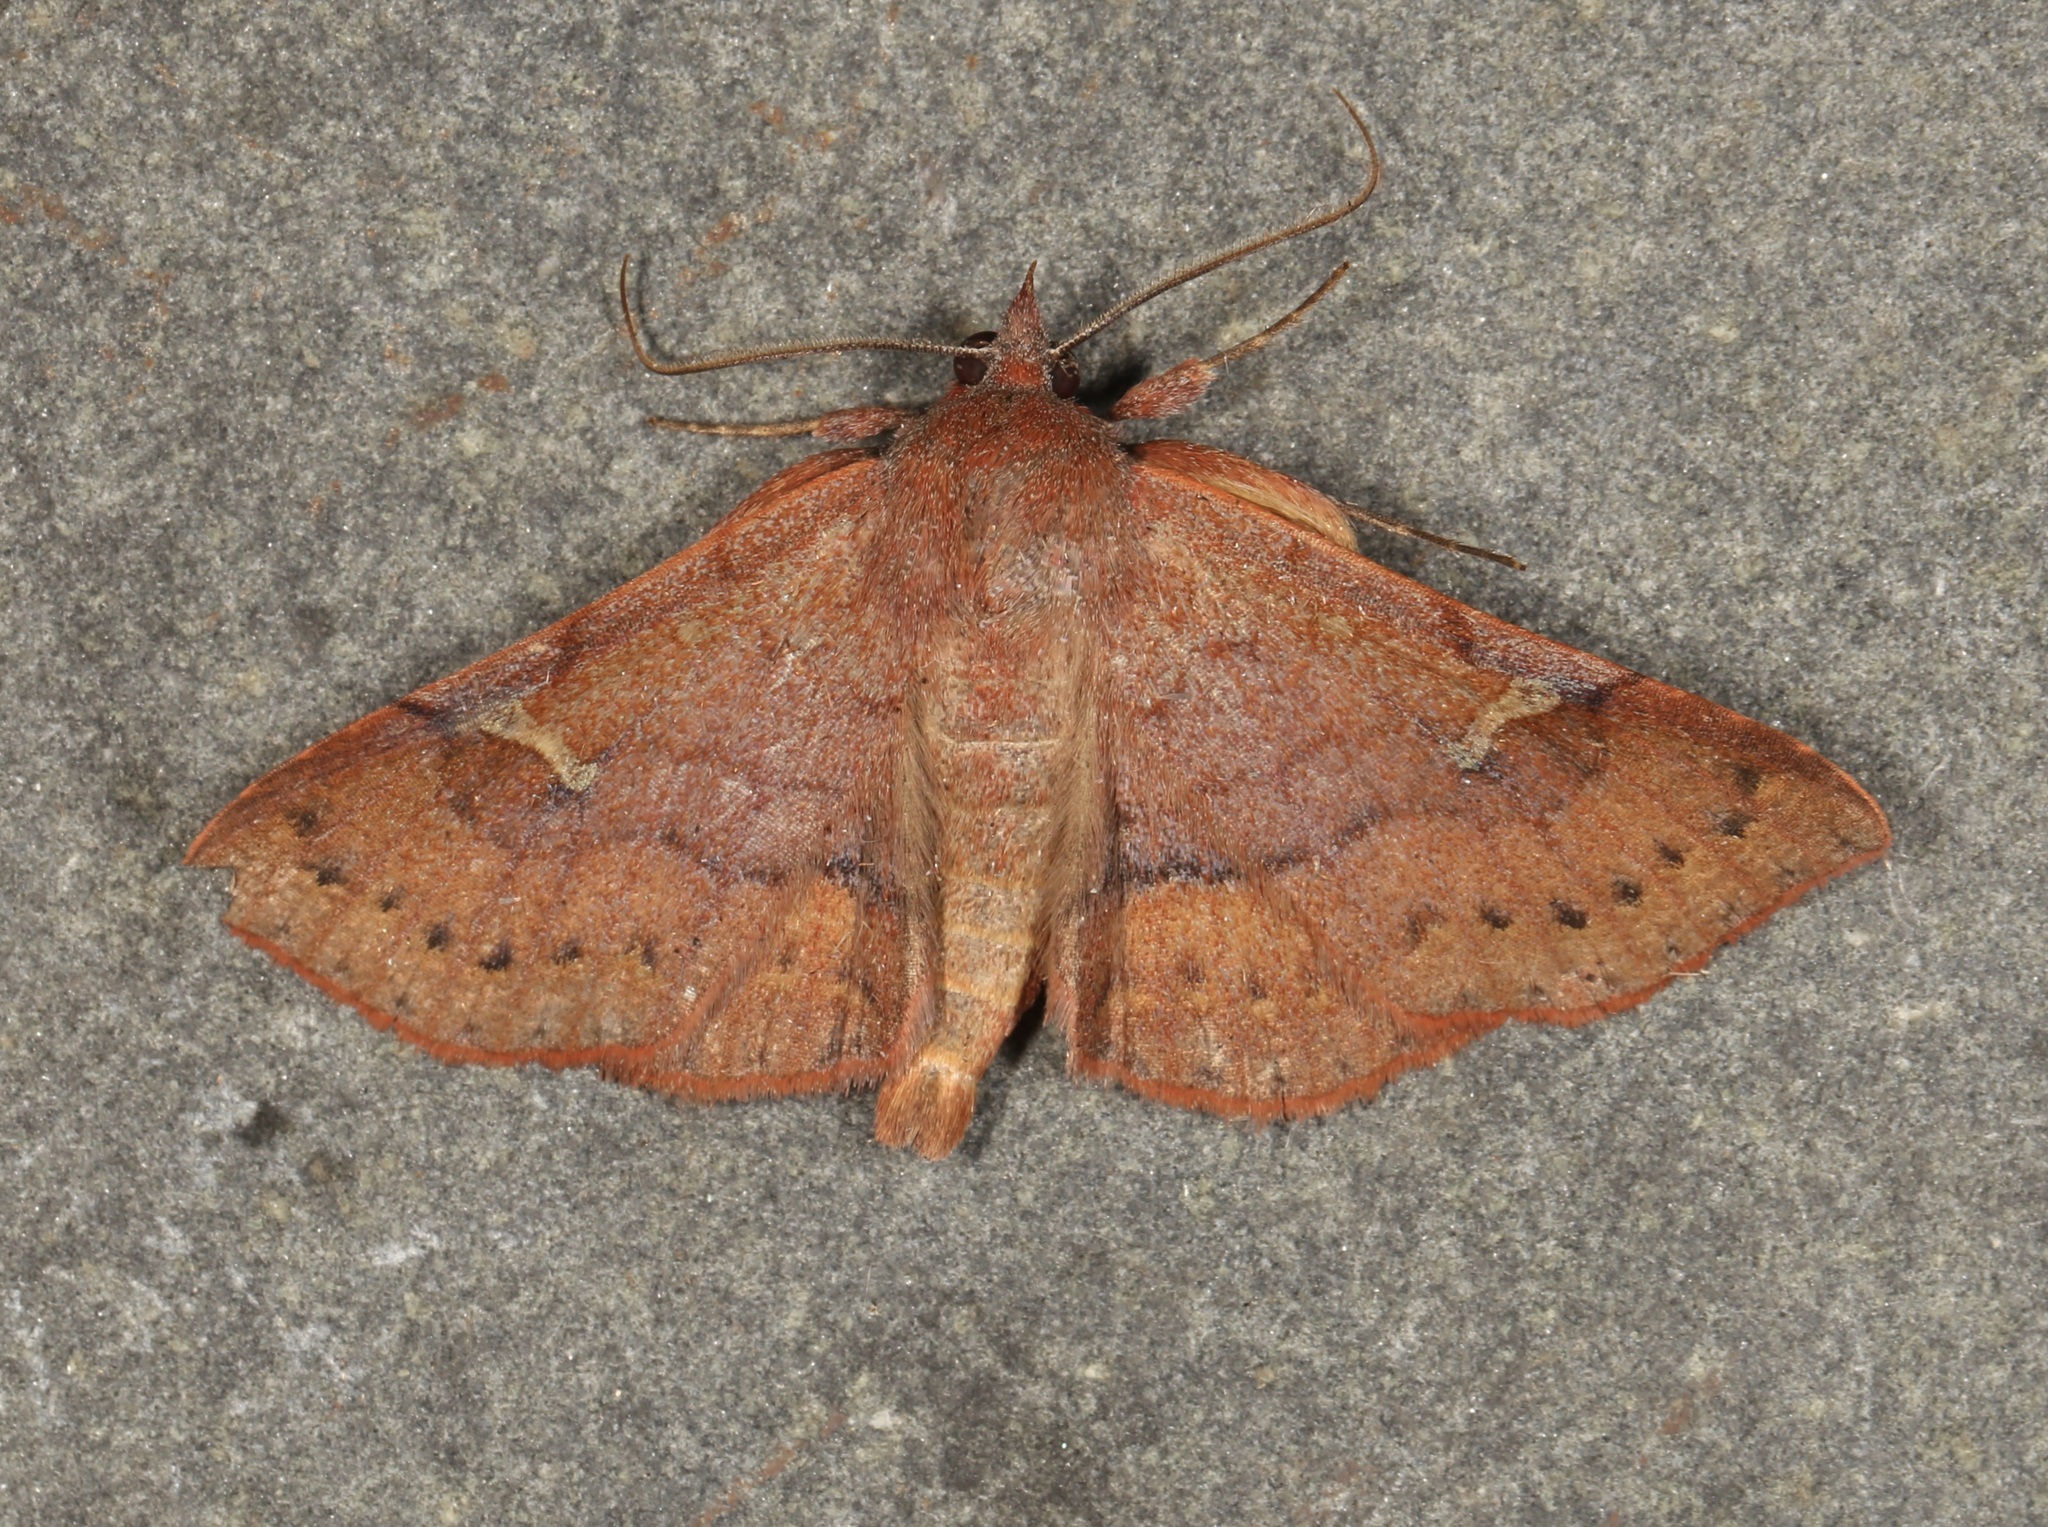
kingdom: Animalia
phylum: Arthropoda
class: Insecta
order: Lepidoptera
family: Erebidae
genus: Azeta
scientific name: Azeta schausi
